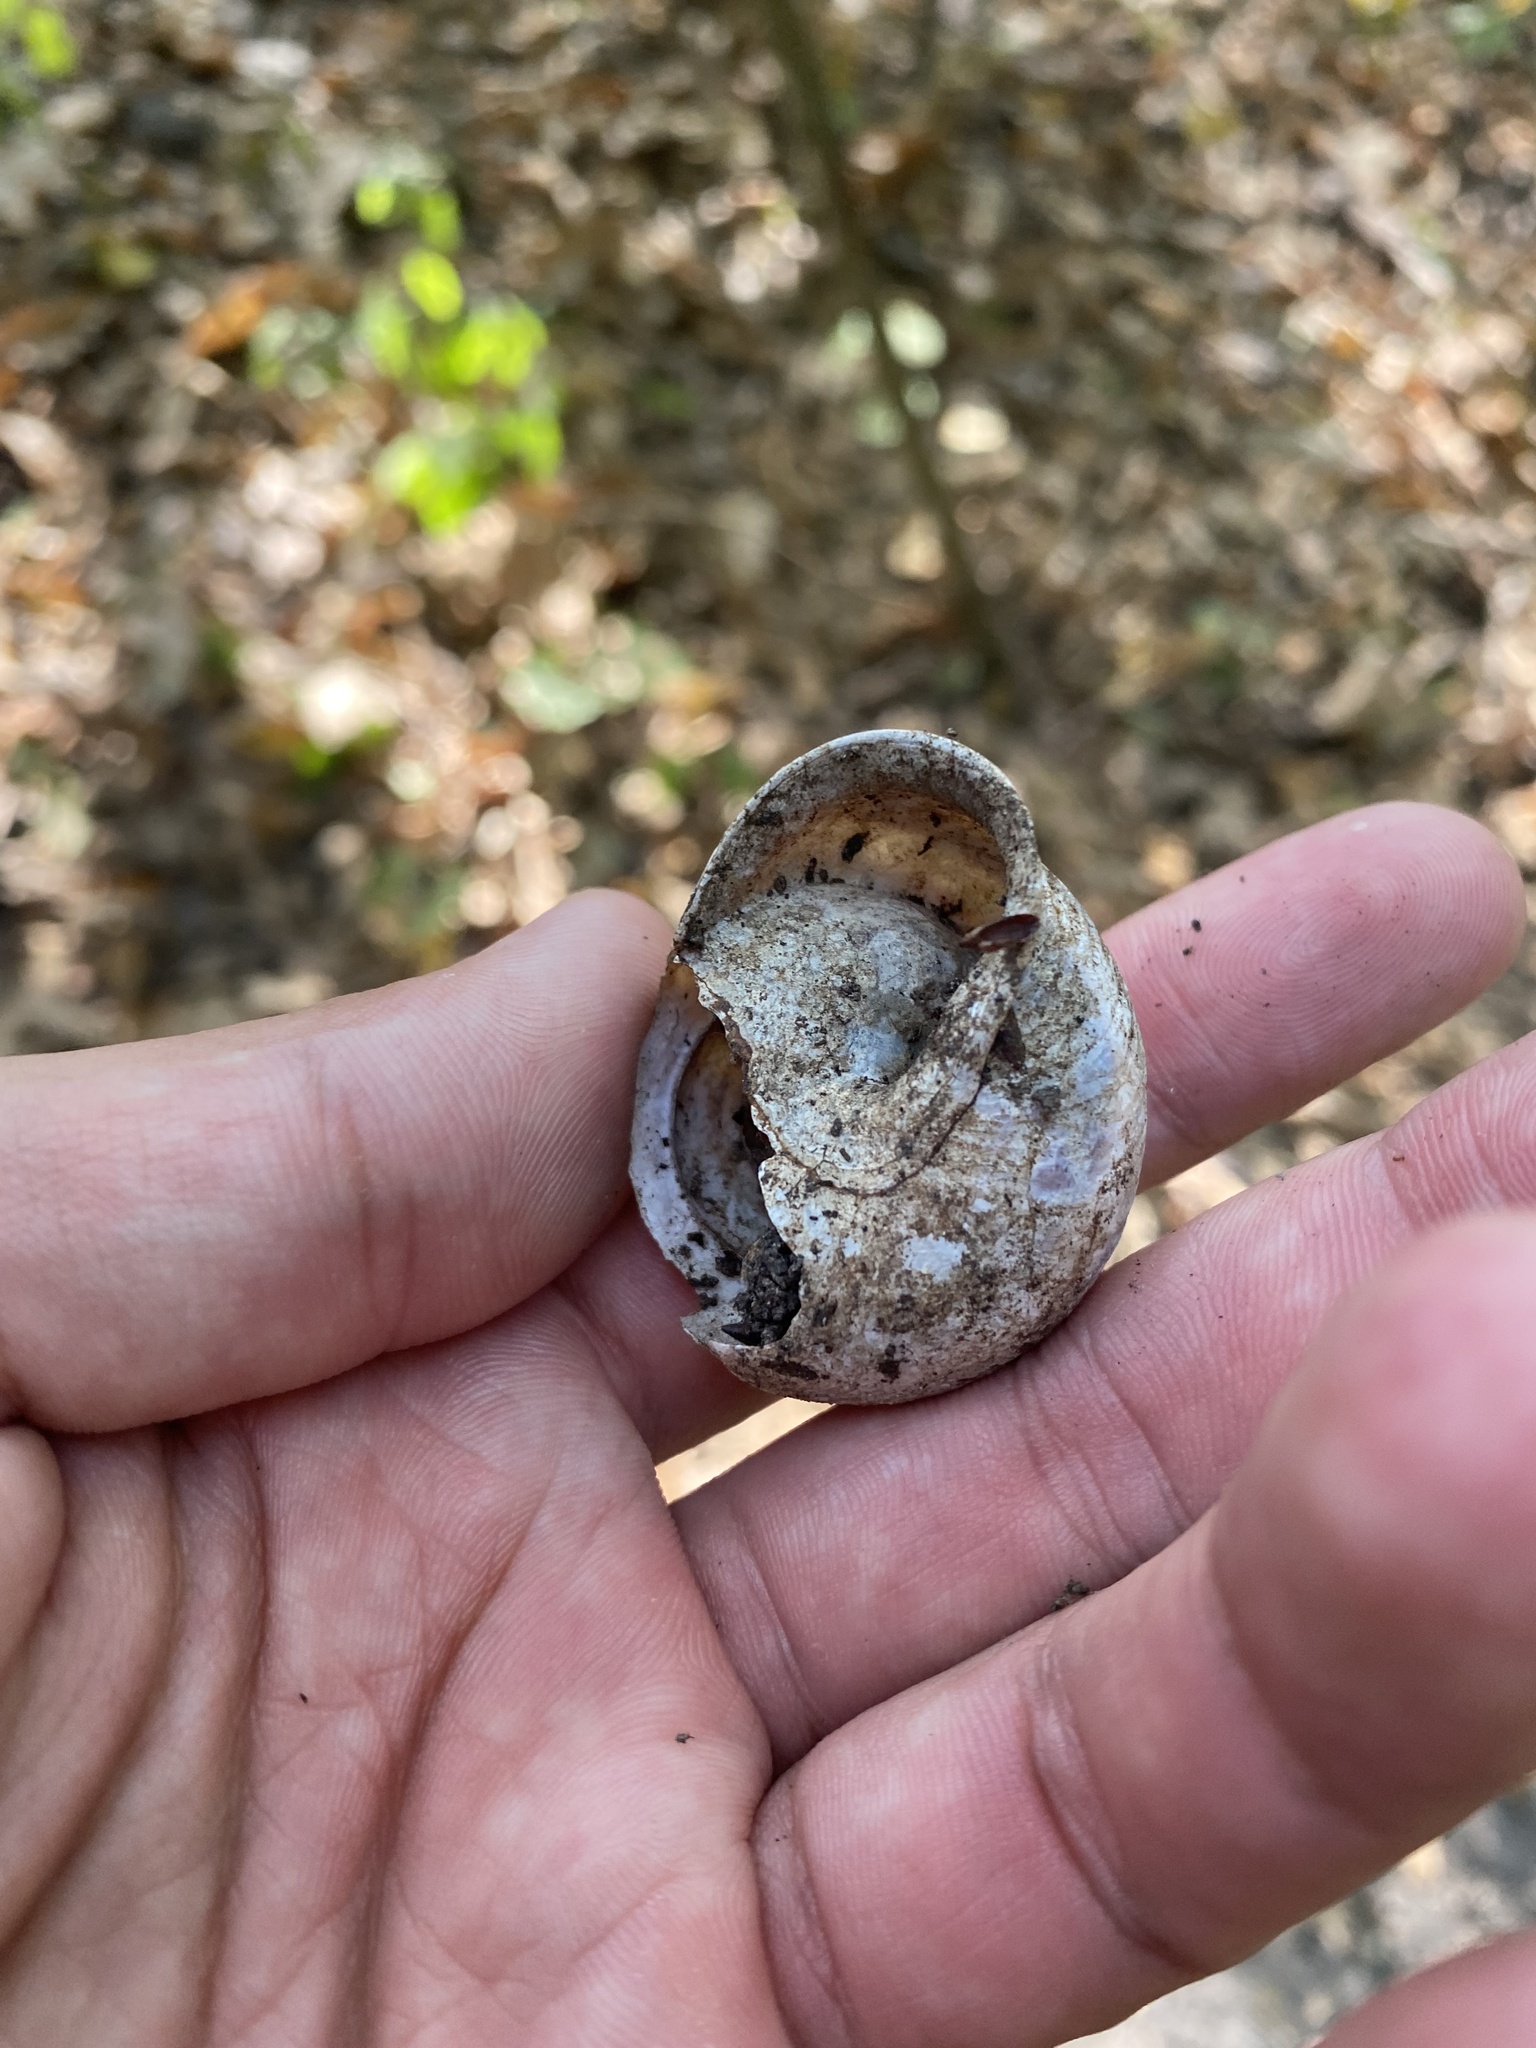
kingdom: Animalia
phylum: Mollusca
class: Gastropoda
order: Stylommatophora
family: Helicidae
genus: Caucasotachea
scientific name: Caucasotachea atrolabiata
